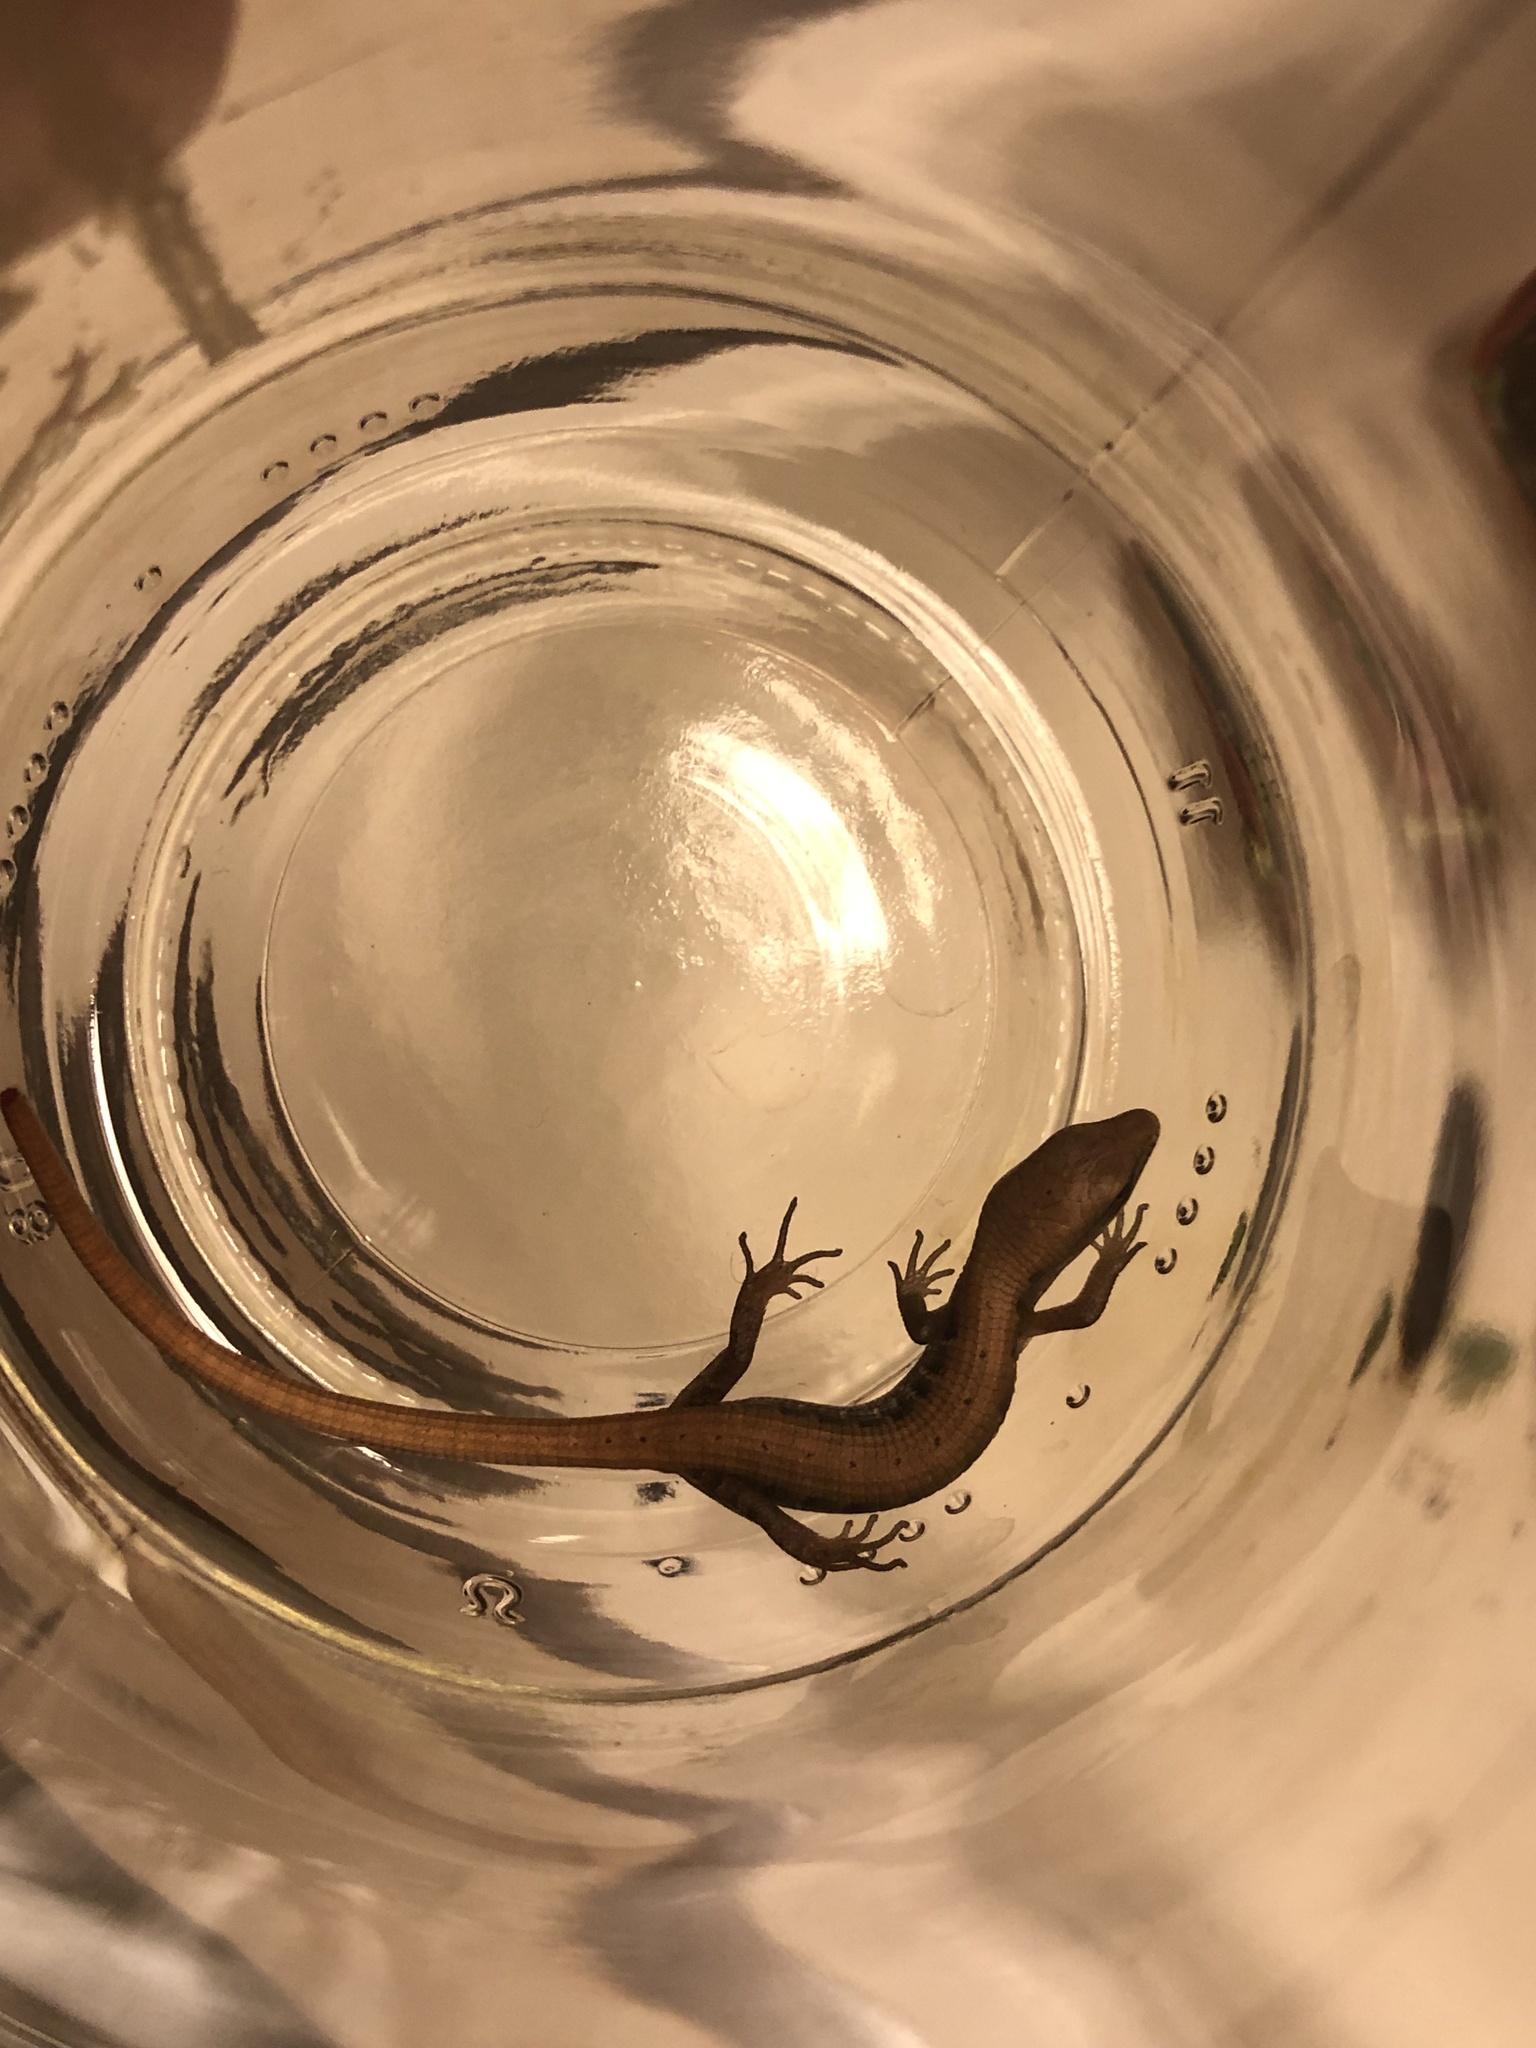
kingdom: Animalia
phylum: Chordata
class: Squamata
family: Anguidae
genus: Elgaria
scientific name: Elgaria multicarinata
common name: Southern alligator lizard
